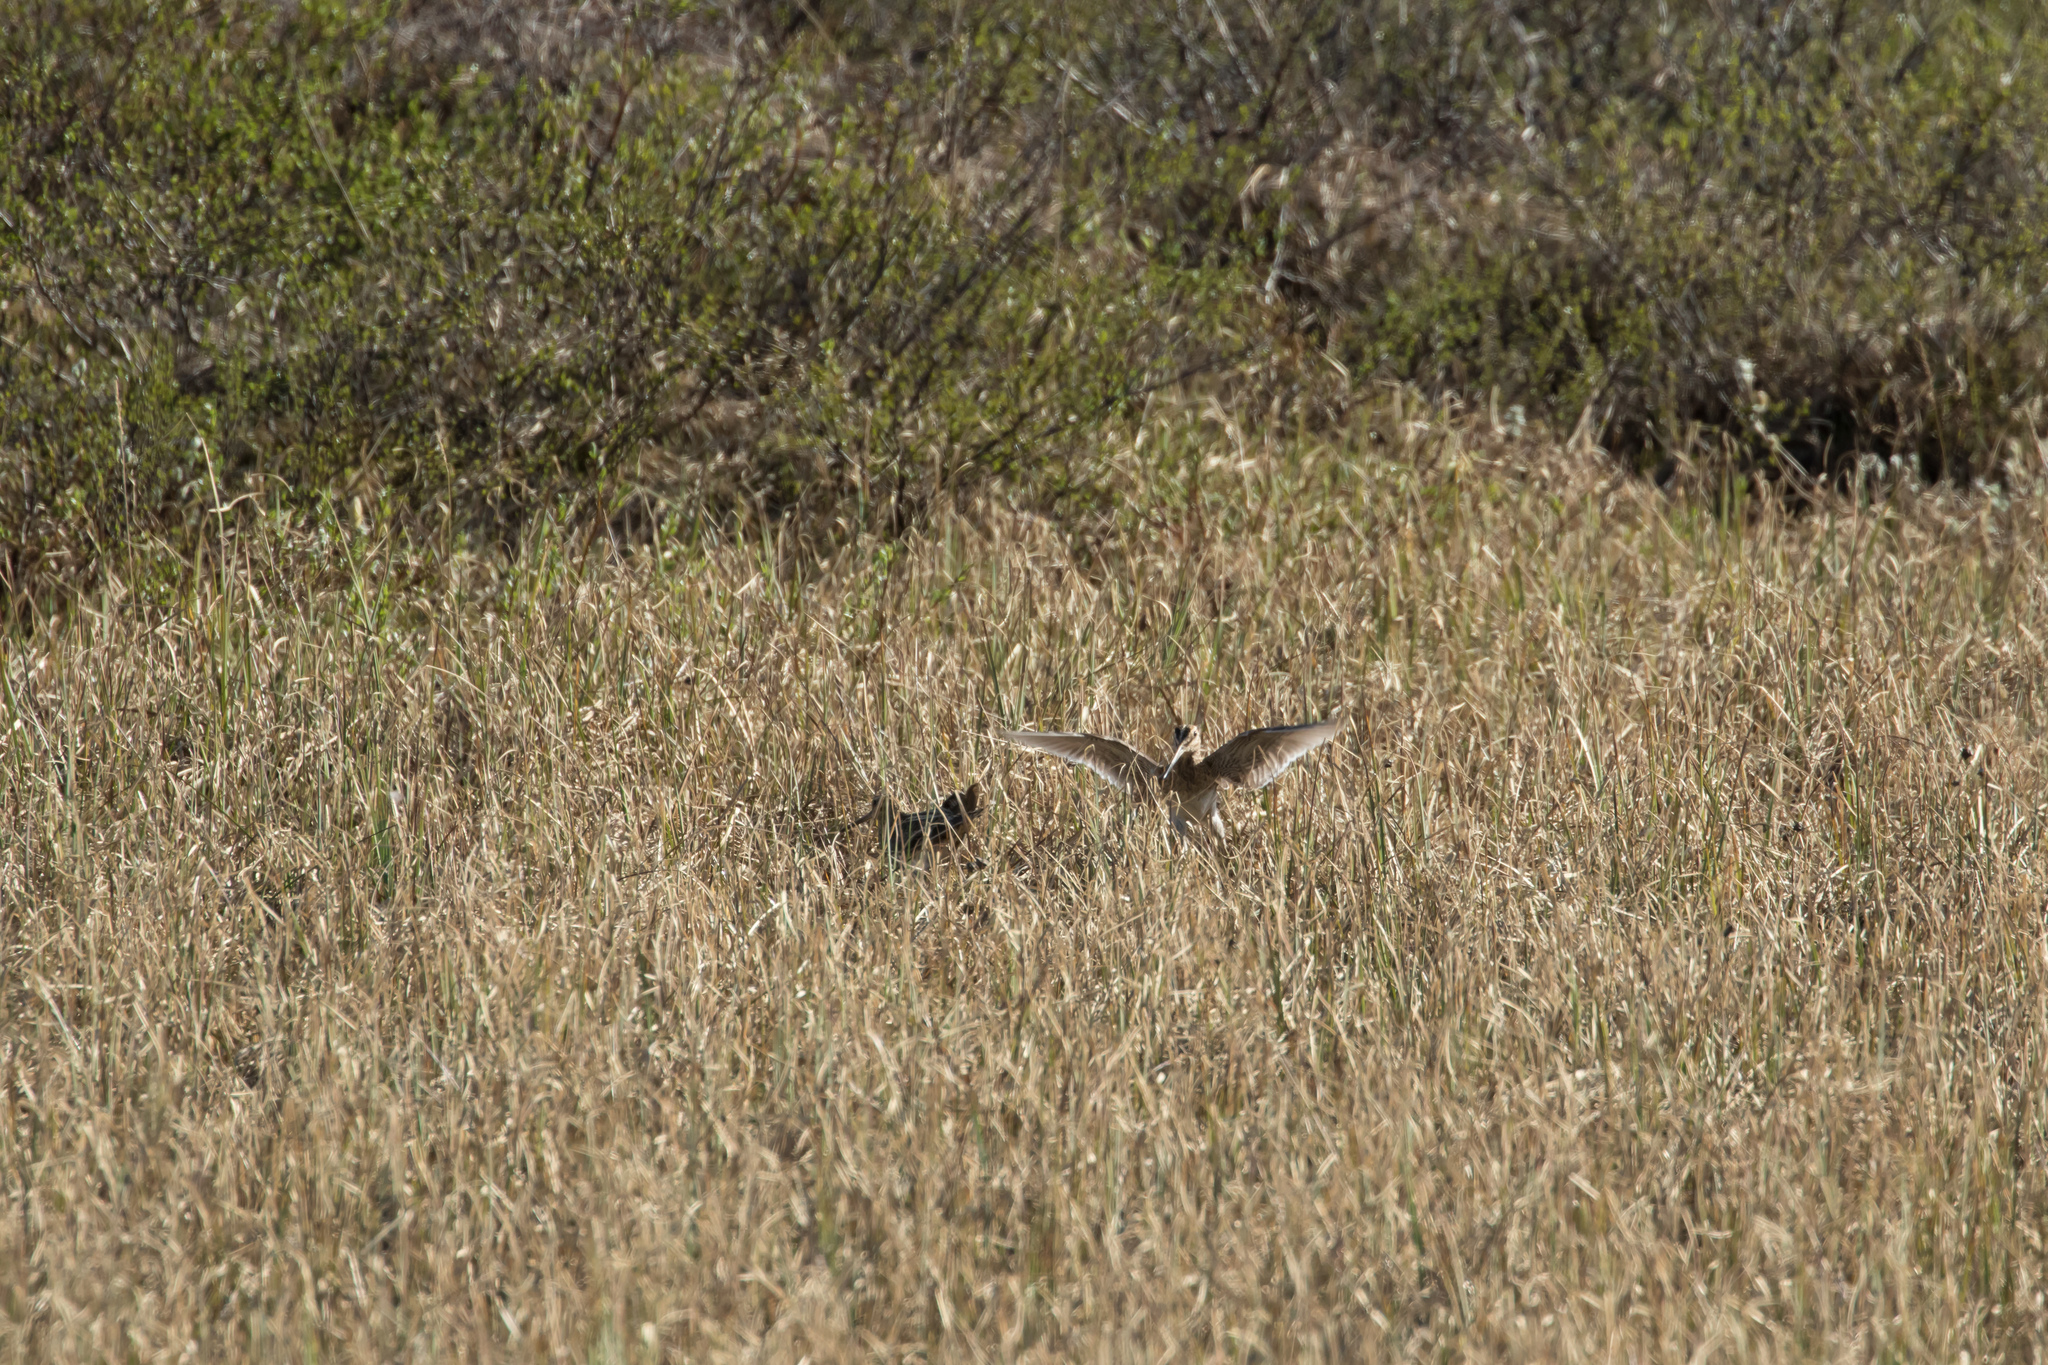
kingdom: Animalia
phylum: Chordata
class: Aves
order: Charadriiformes
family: Scolopacidae
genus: Gallinago
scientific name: Gallinago gallinago
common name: Common snipe
